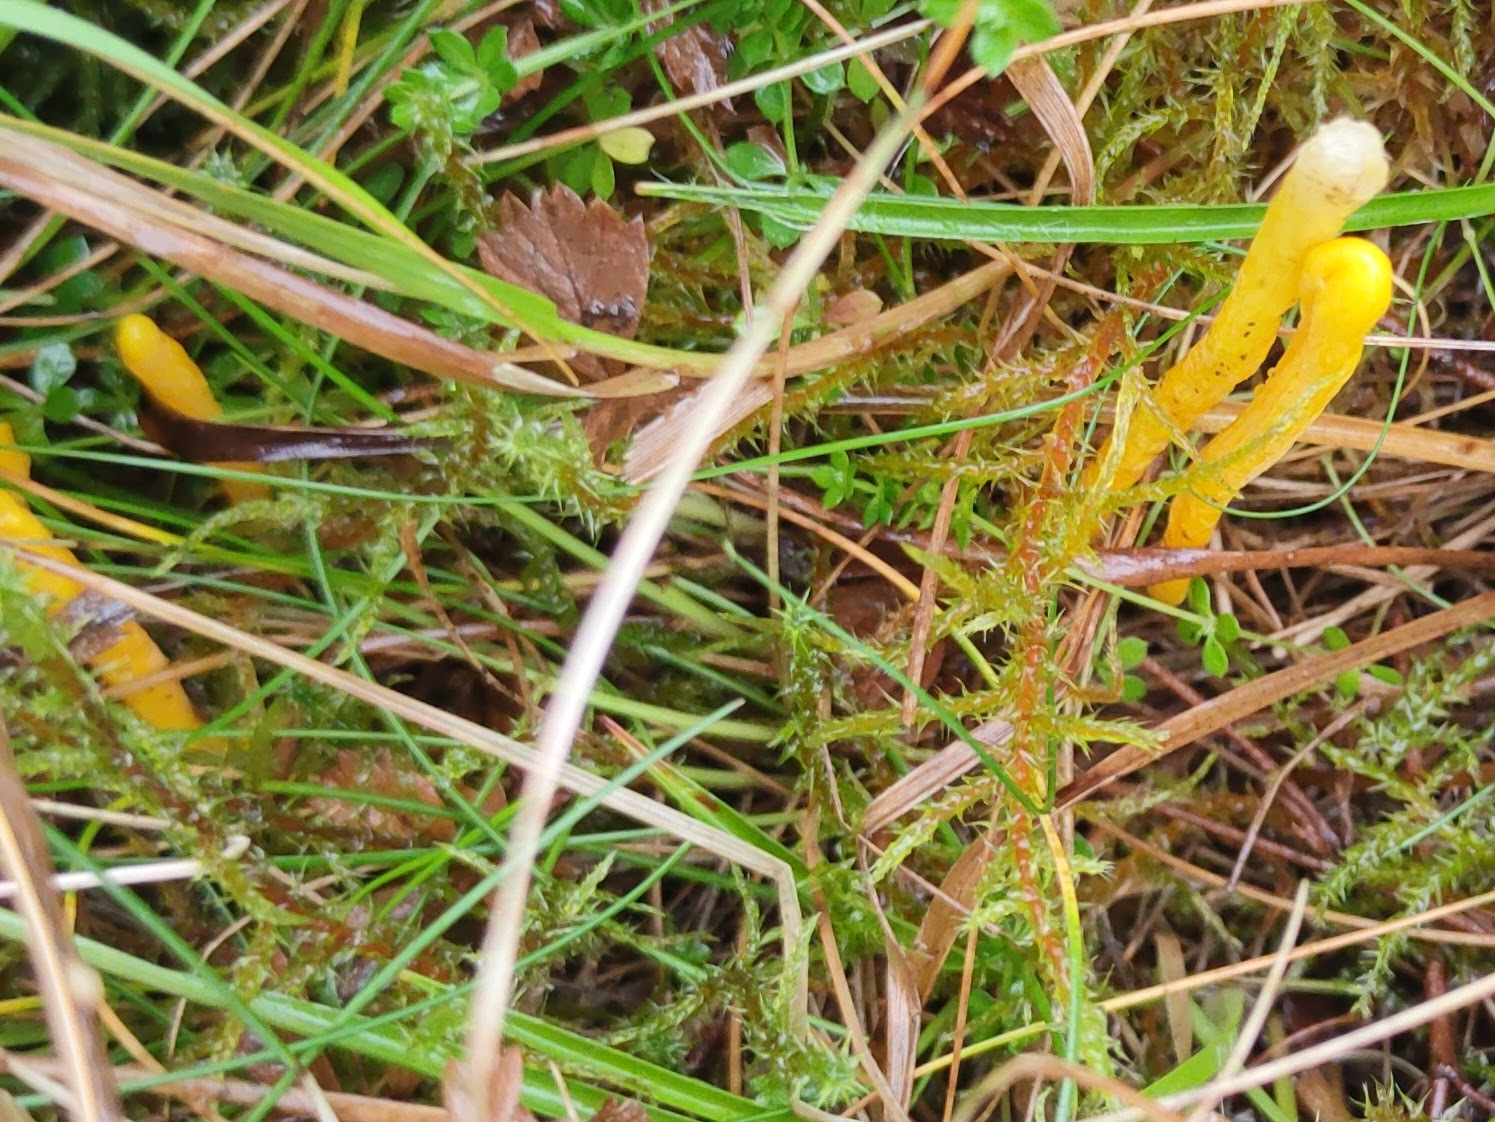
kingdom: Fungi
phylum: Basidiomycota
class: Agaricomycetes
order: Agaricales
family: Clavariaceae
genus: Clavulinopsis
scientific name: Clavulinopsis helvola
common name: Yellow club
